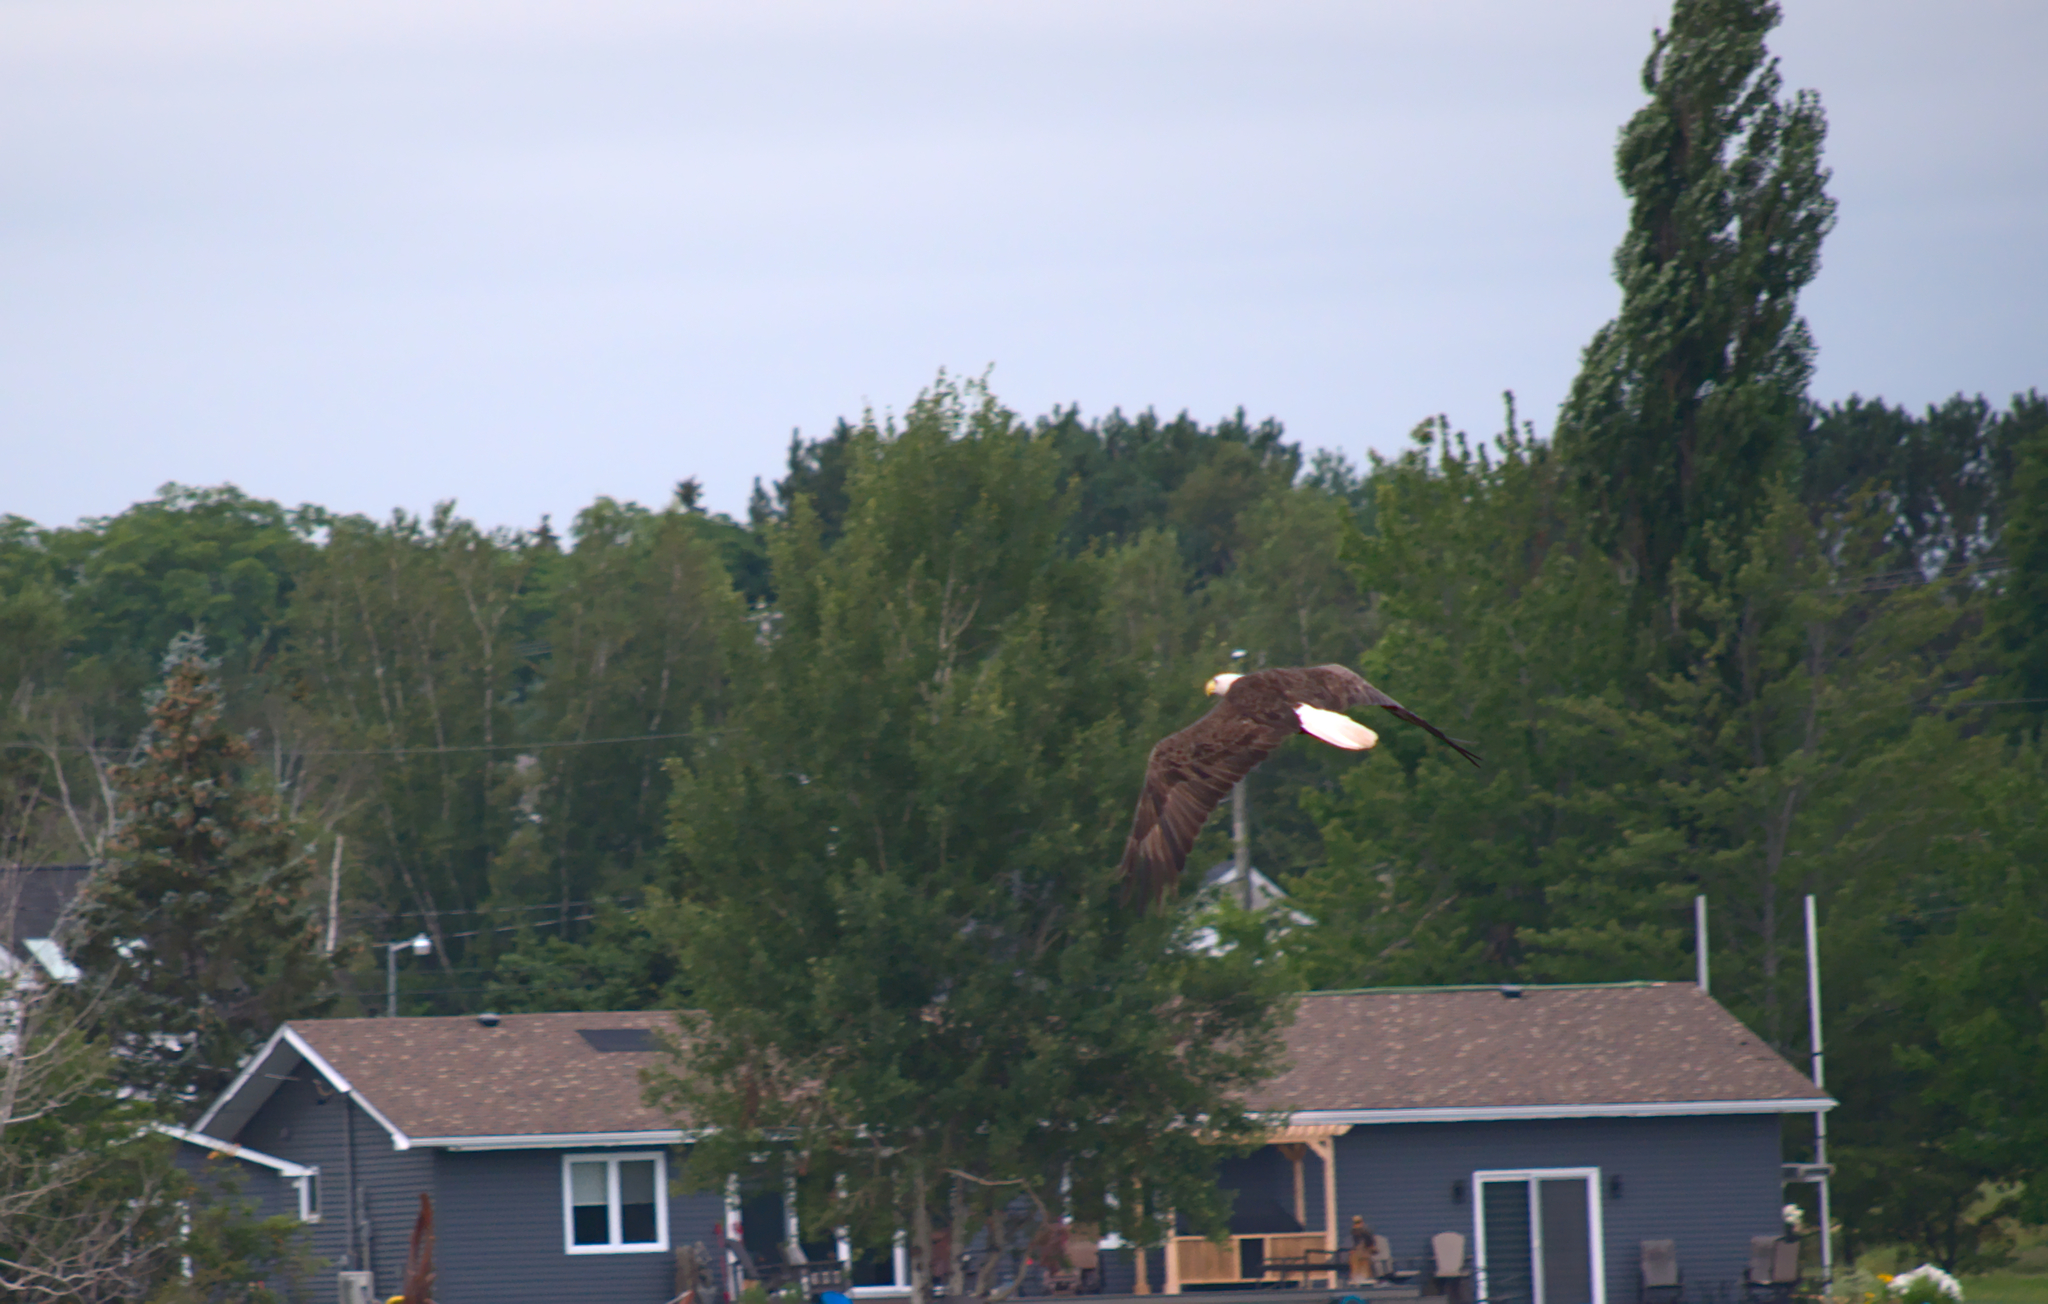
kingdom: Animalia
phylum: Chordata
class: Aves
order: Accipitriformes
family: Accipitridae
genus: Haliaeetus
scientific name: Haliaeetus leucocephalus
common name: Bald eagle
